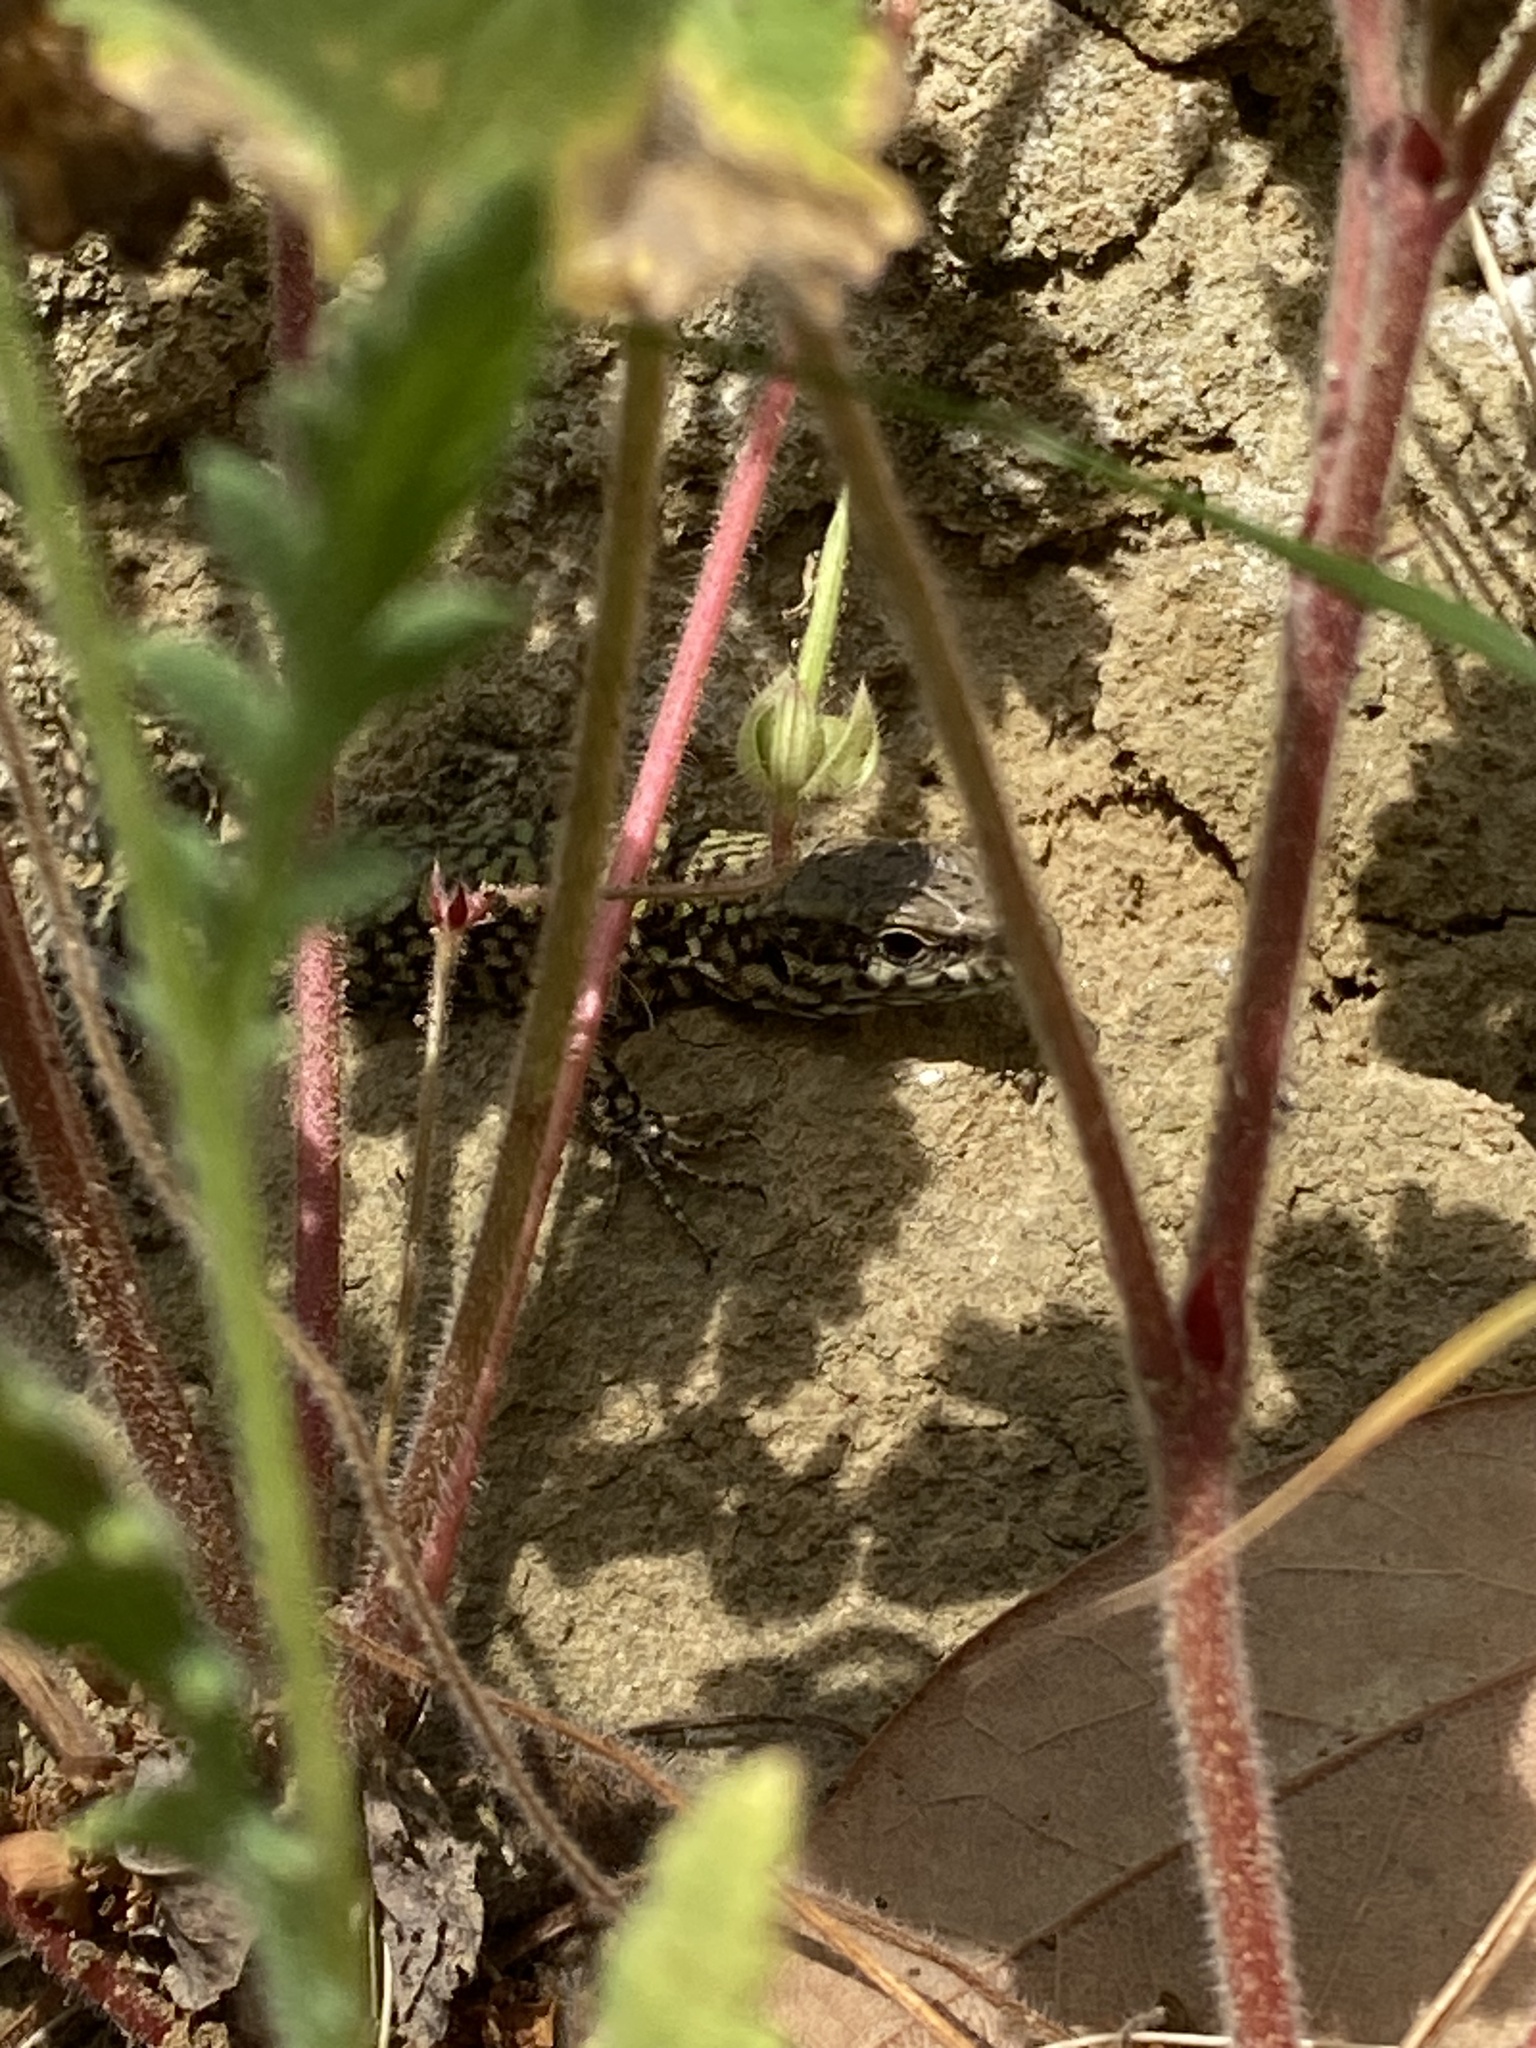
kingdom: Animalia
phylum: Chordata
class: Squamata
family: Lacertidae
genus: Podarcis
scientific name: Podarcis muralis
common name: Common wall lizard
